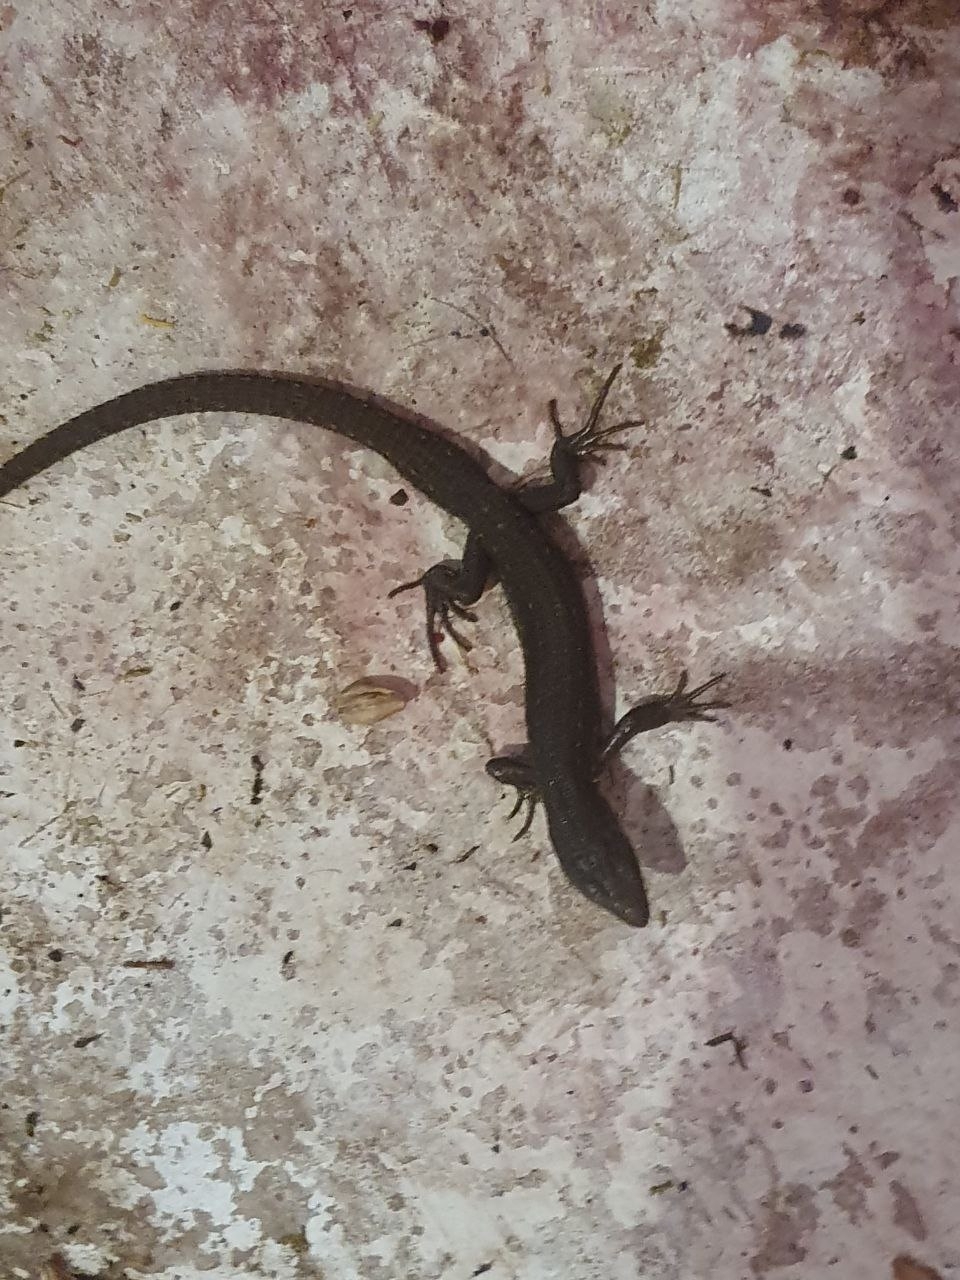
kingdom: Animalia
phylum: Chordata
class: Squamata
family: Lacertidae
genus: Zootoca
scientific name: Zootoca vivipara
